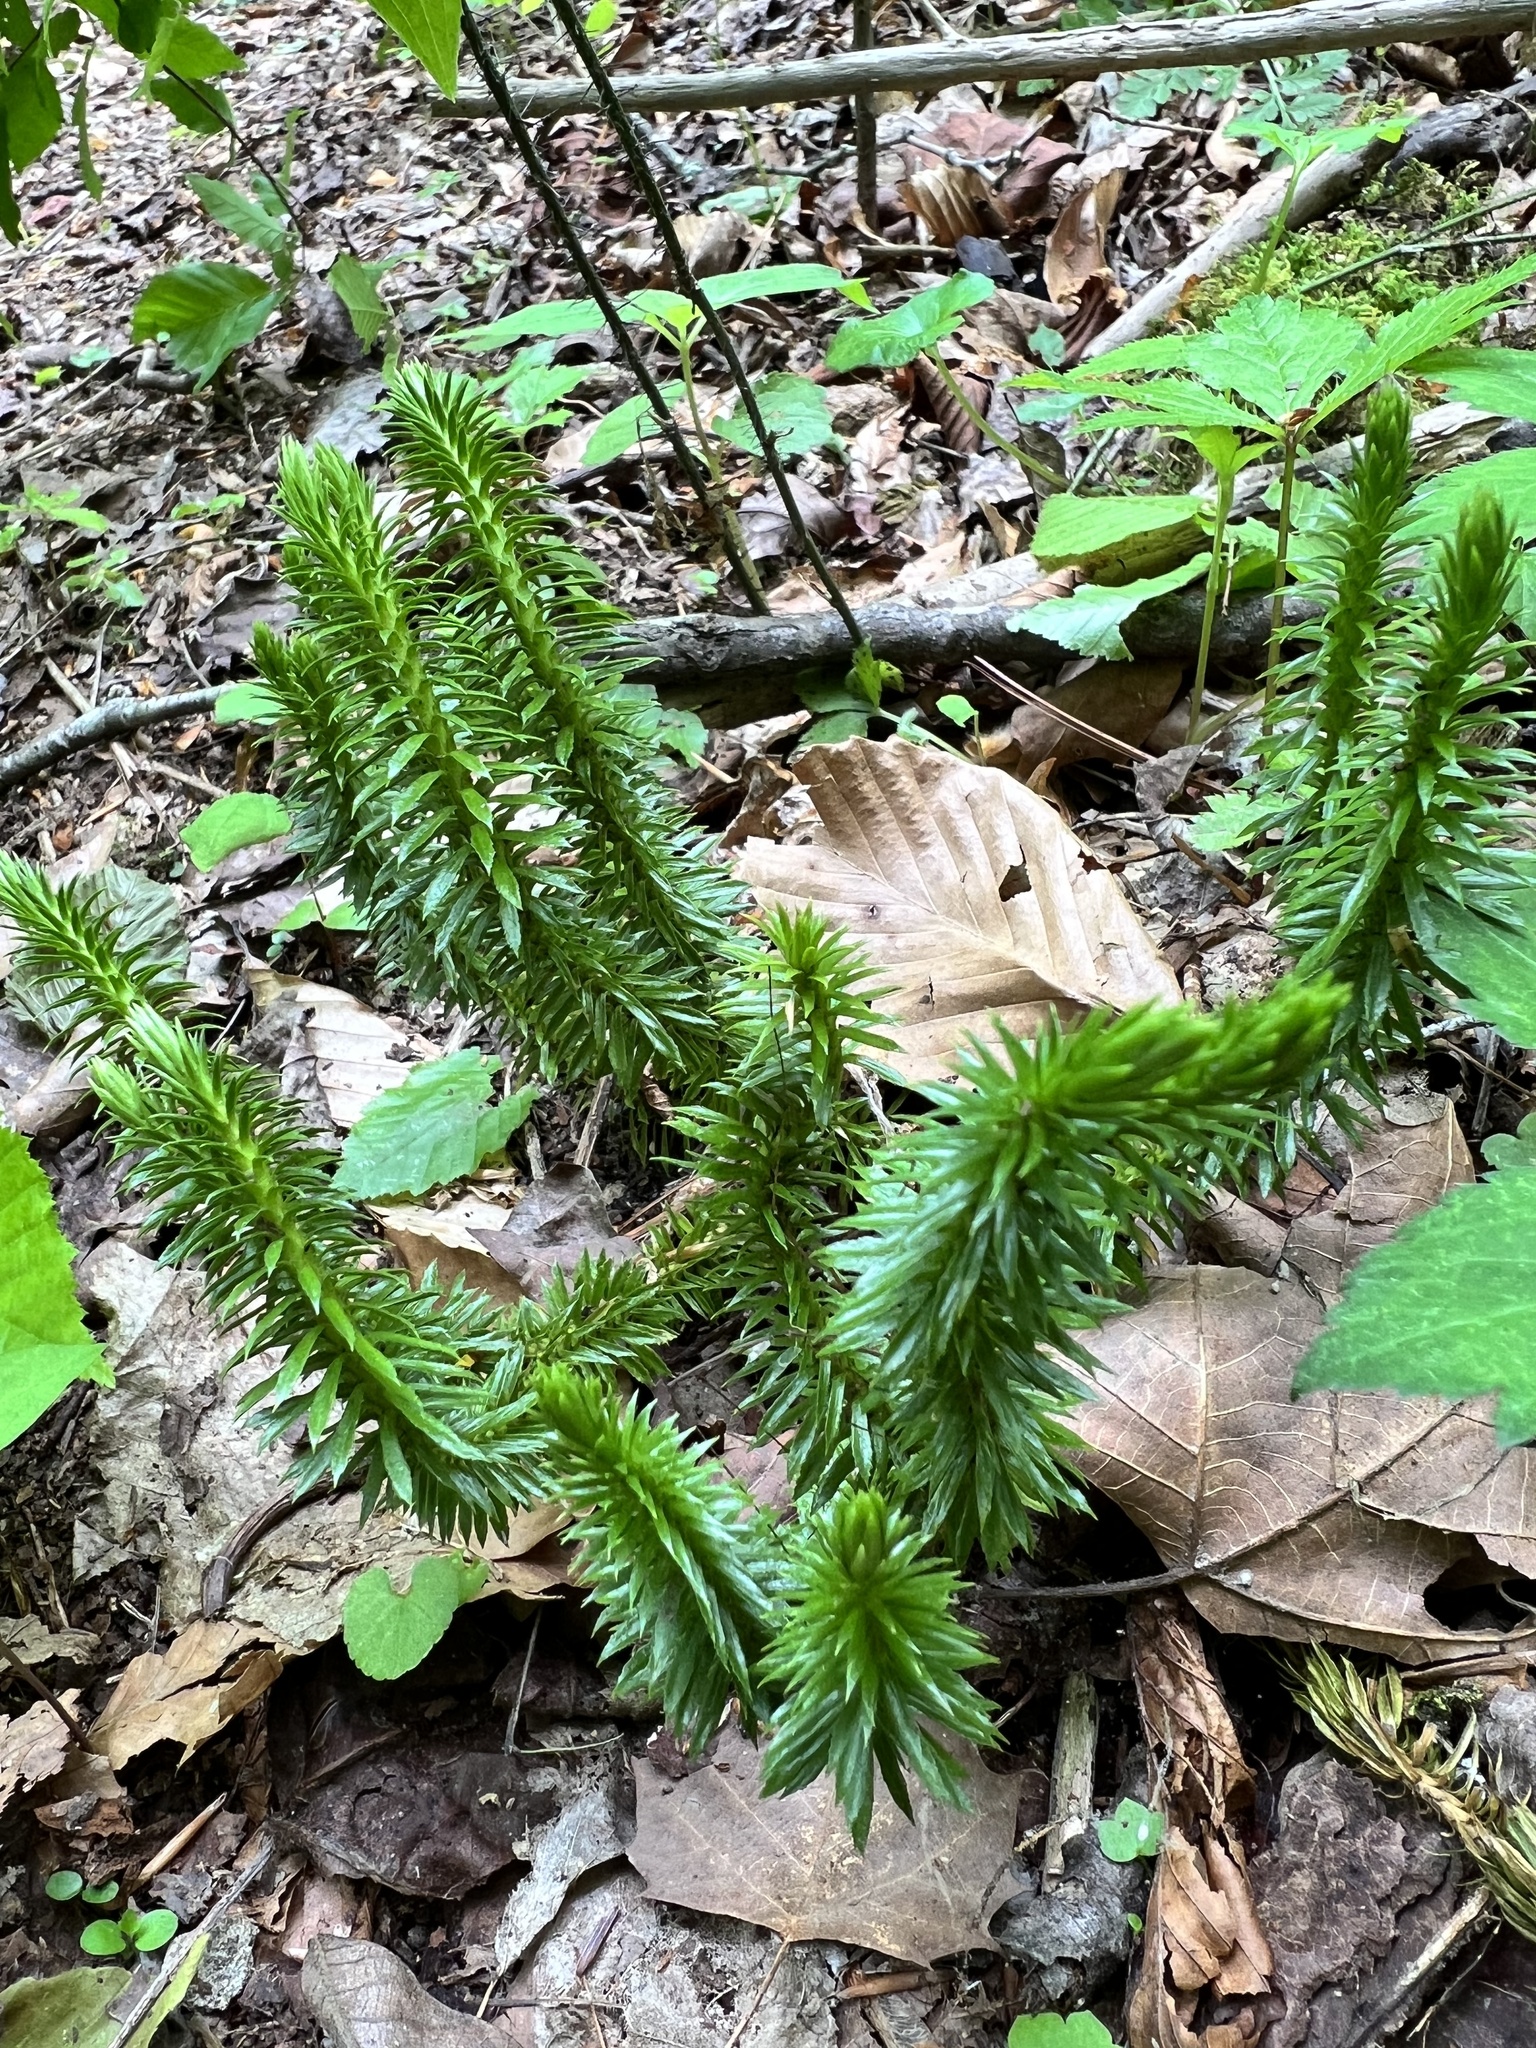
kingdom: Plantae
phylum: Tracheophyta
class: Lycopodiopsida
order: Lycopodiales
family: Lycopodiaceae
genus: Huperzia
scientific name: Huperzia lucidula
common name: Shining clubmoss
